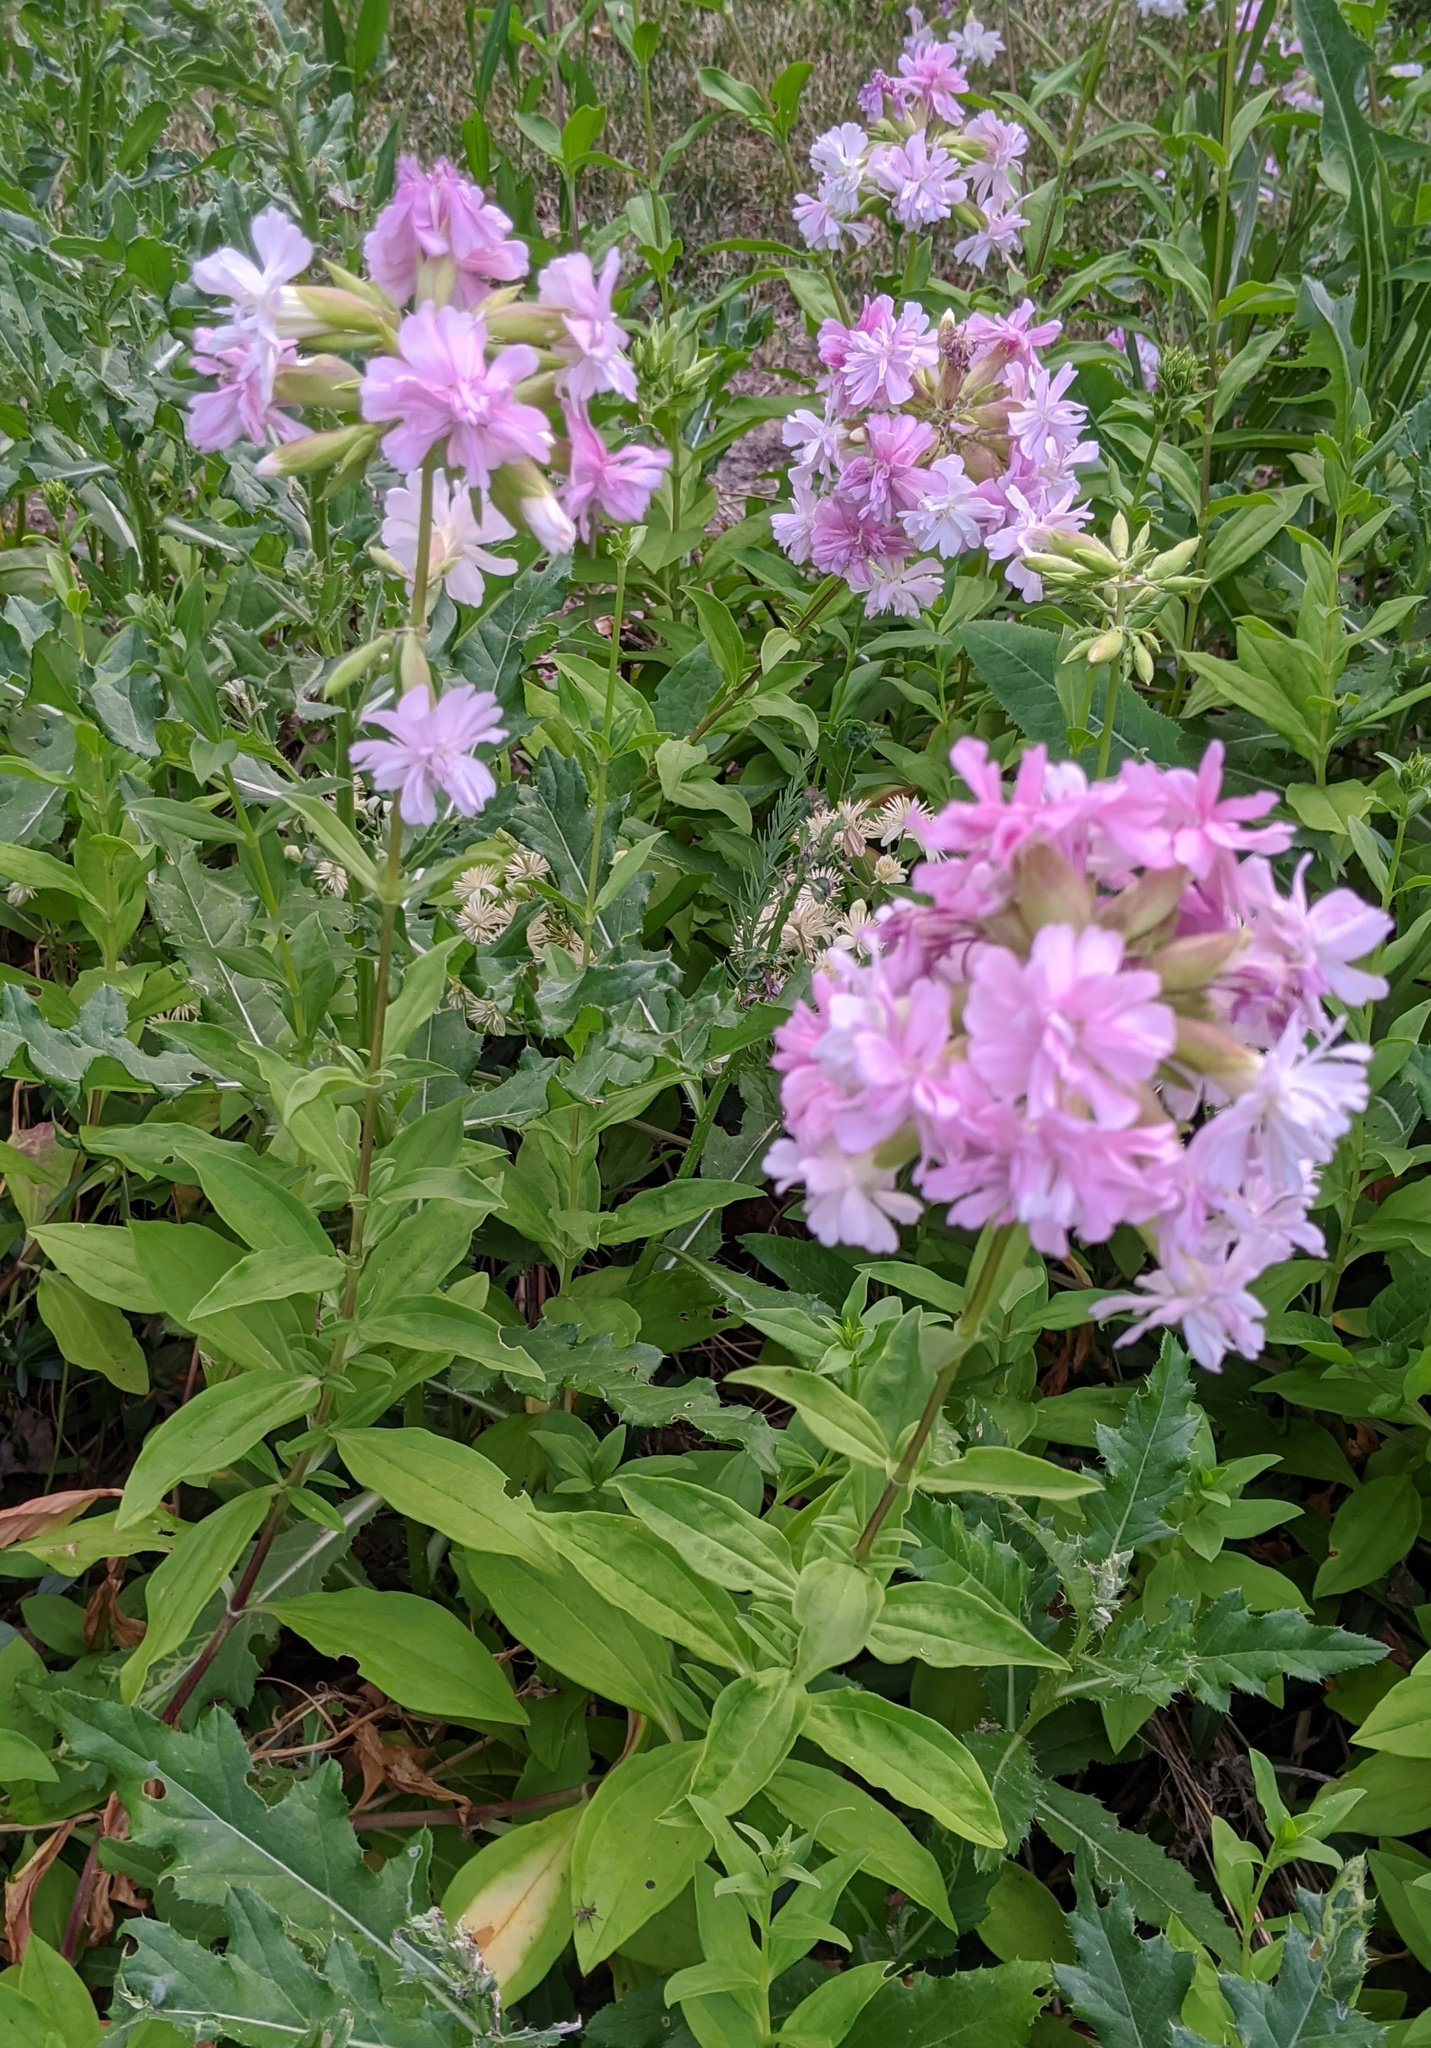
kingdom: Plantae
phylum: Tracheophyta
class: Magnoliopsida
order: Caryophyllales
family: Caryophyllaceae
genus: Saponaria
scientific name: Saponaria officinalis
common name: Soapwort
